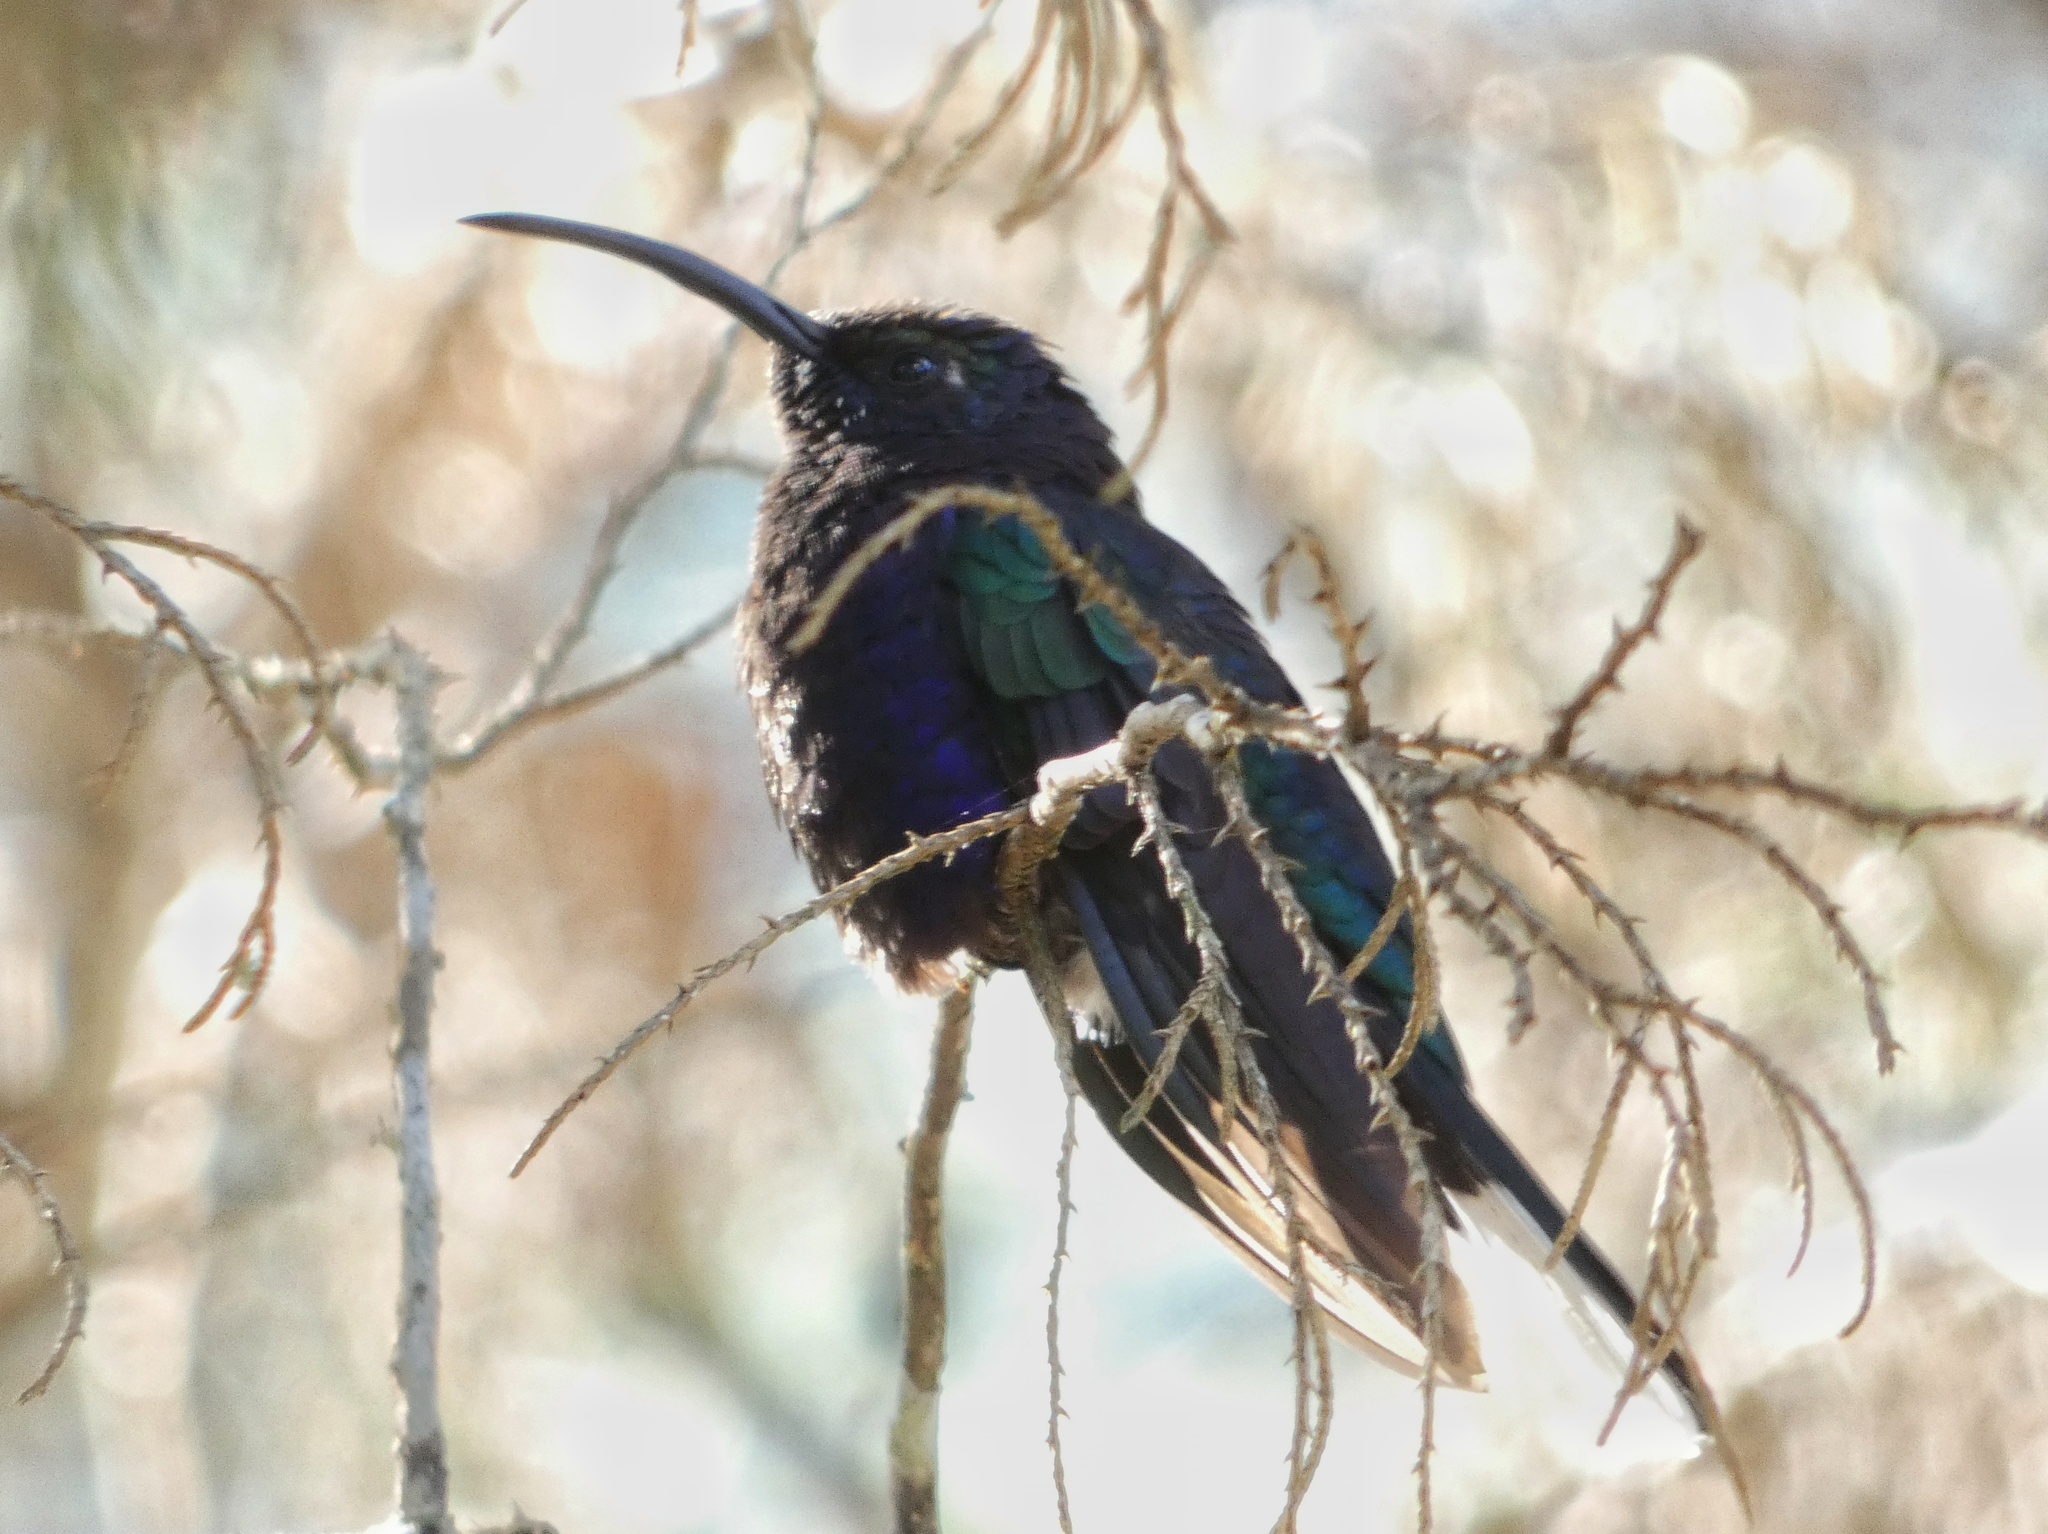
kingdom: Animalia
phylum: Chordata
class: Aves
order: Apodiformes
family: Trochilidae
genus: Campylopterus
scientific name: Campylopterus hemileucurus
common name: Violet sabrewing
